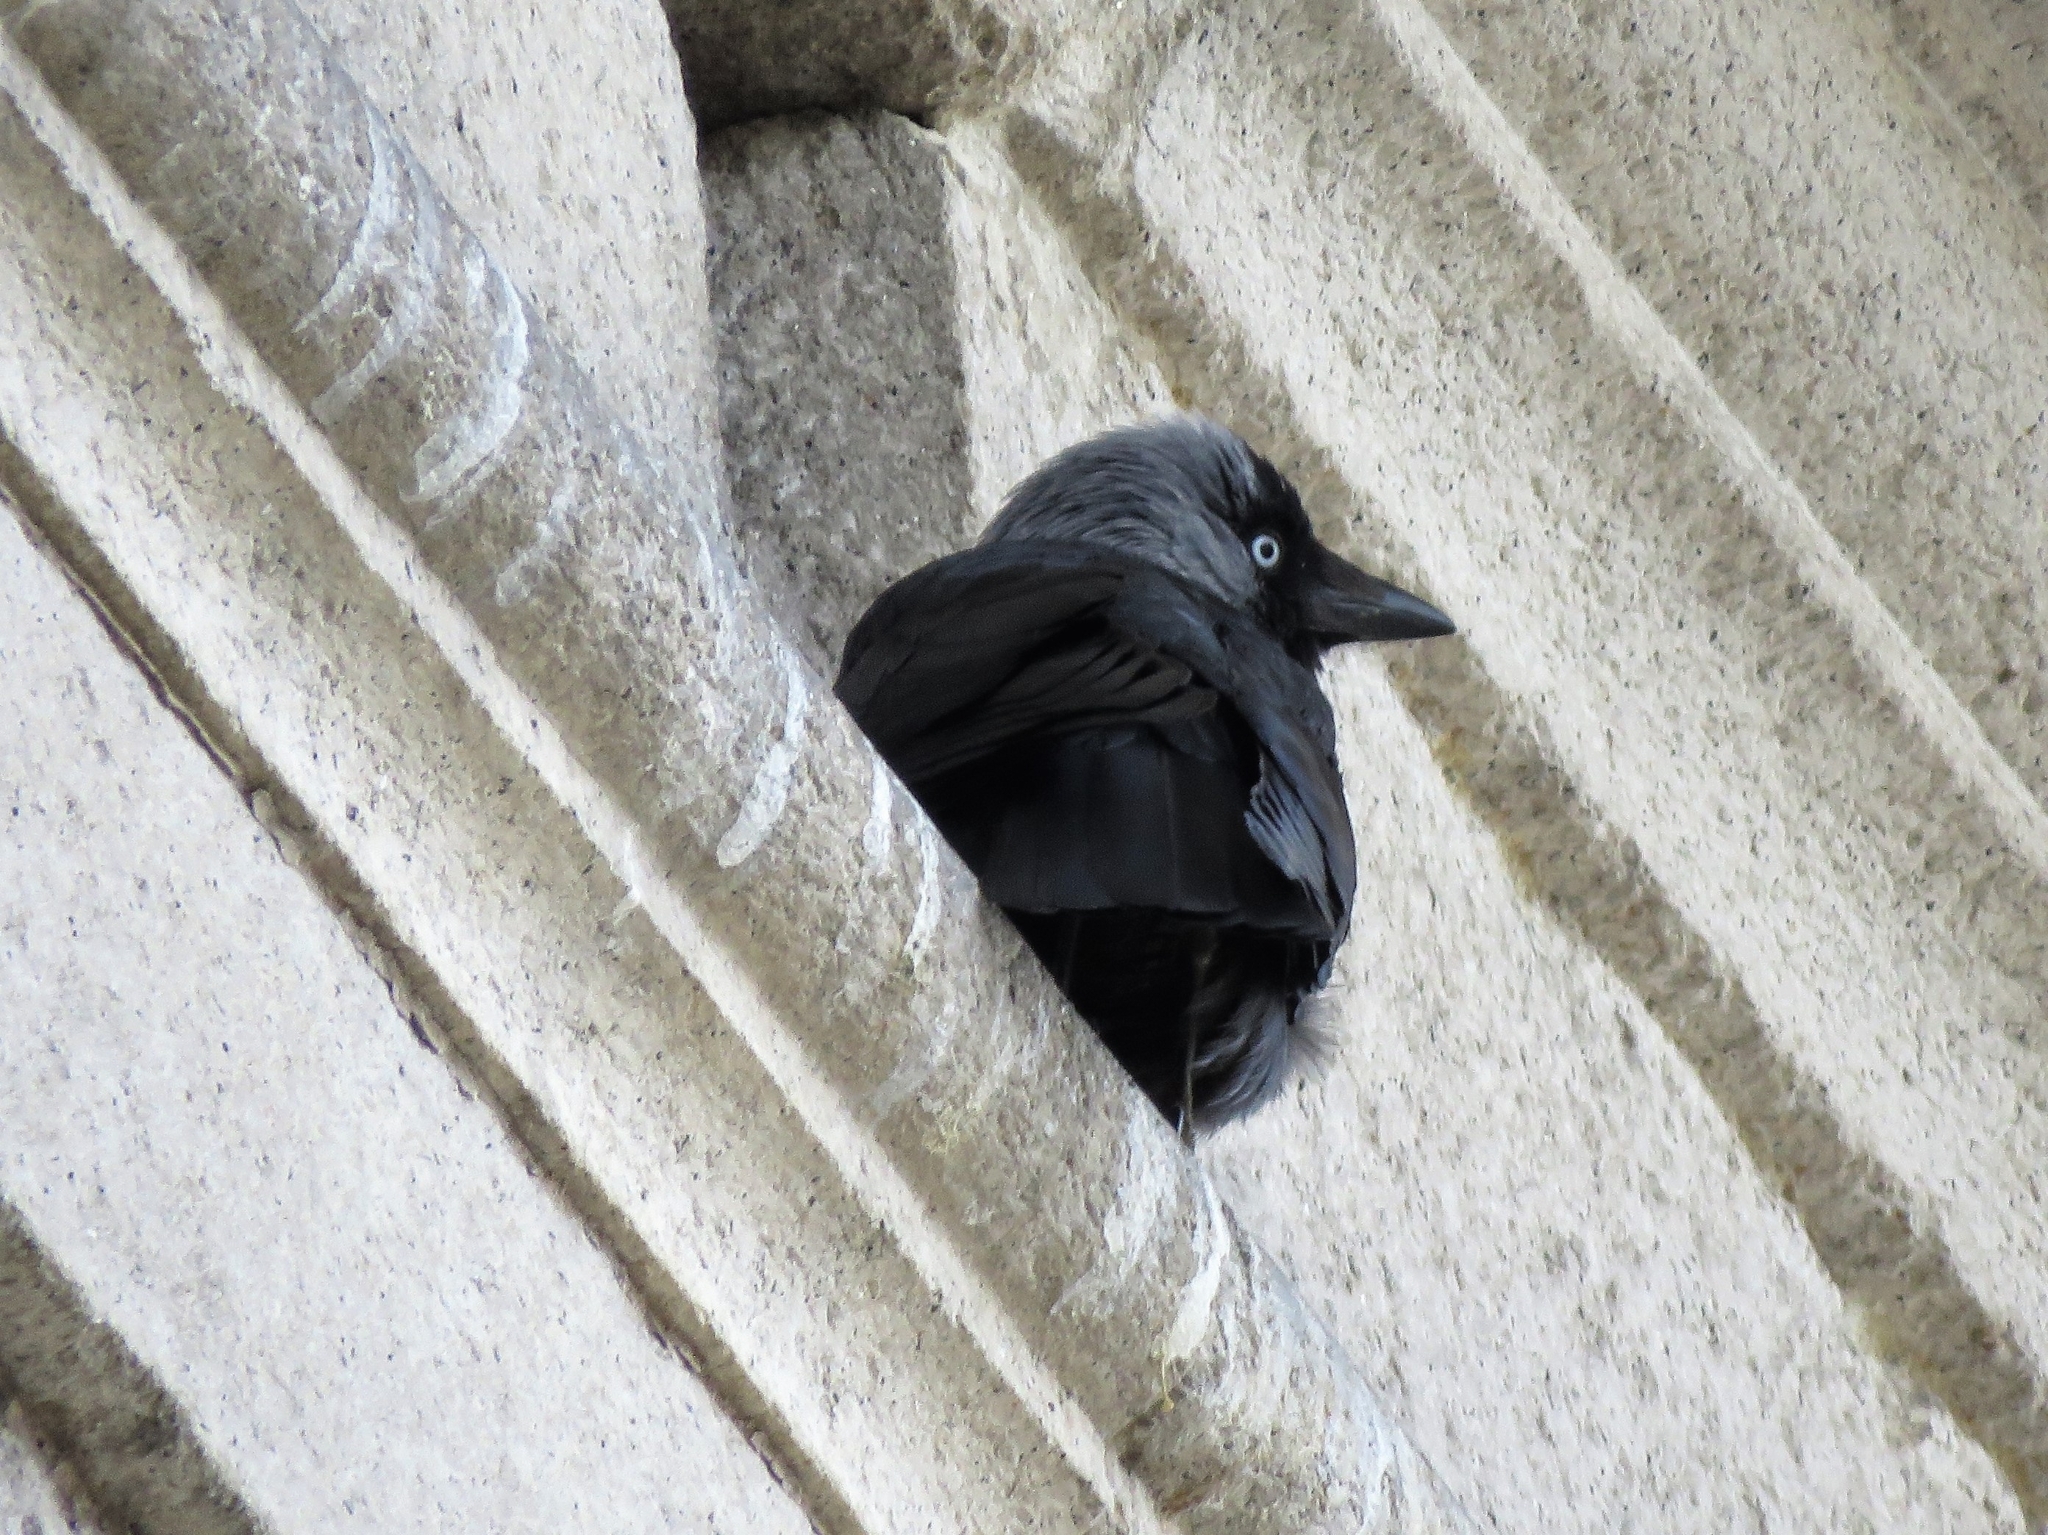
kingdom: Animalia
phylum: Chordata
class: Aves
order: Passeriformes
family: Corvidae
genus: Coloeus
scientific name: Coloeus monedula
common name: Western jackdaw
